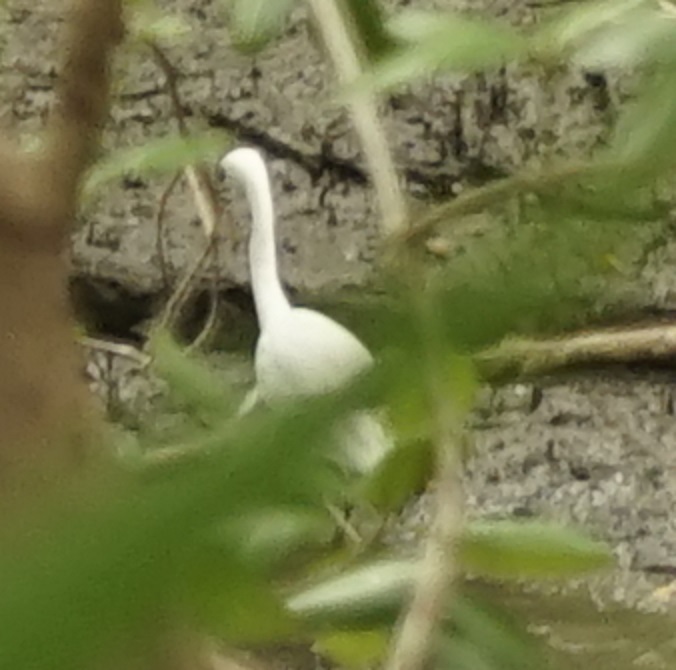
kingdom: Animalia
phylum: Chordata
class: Aves
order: Pelecaniformes
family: Ardeidae
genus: Egretta
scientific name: Egretta garzetta
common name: Little egret
